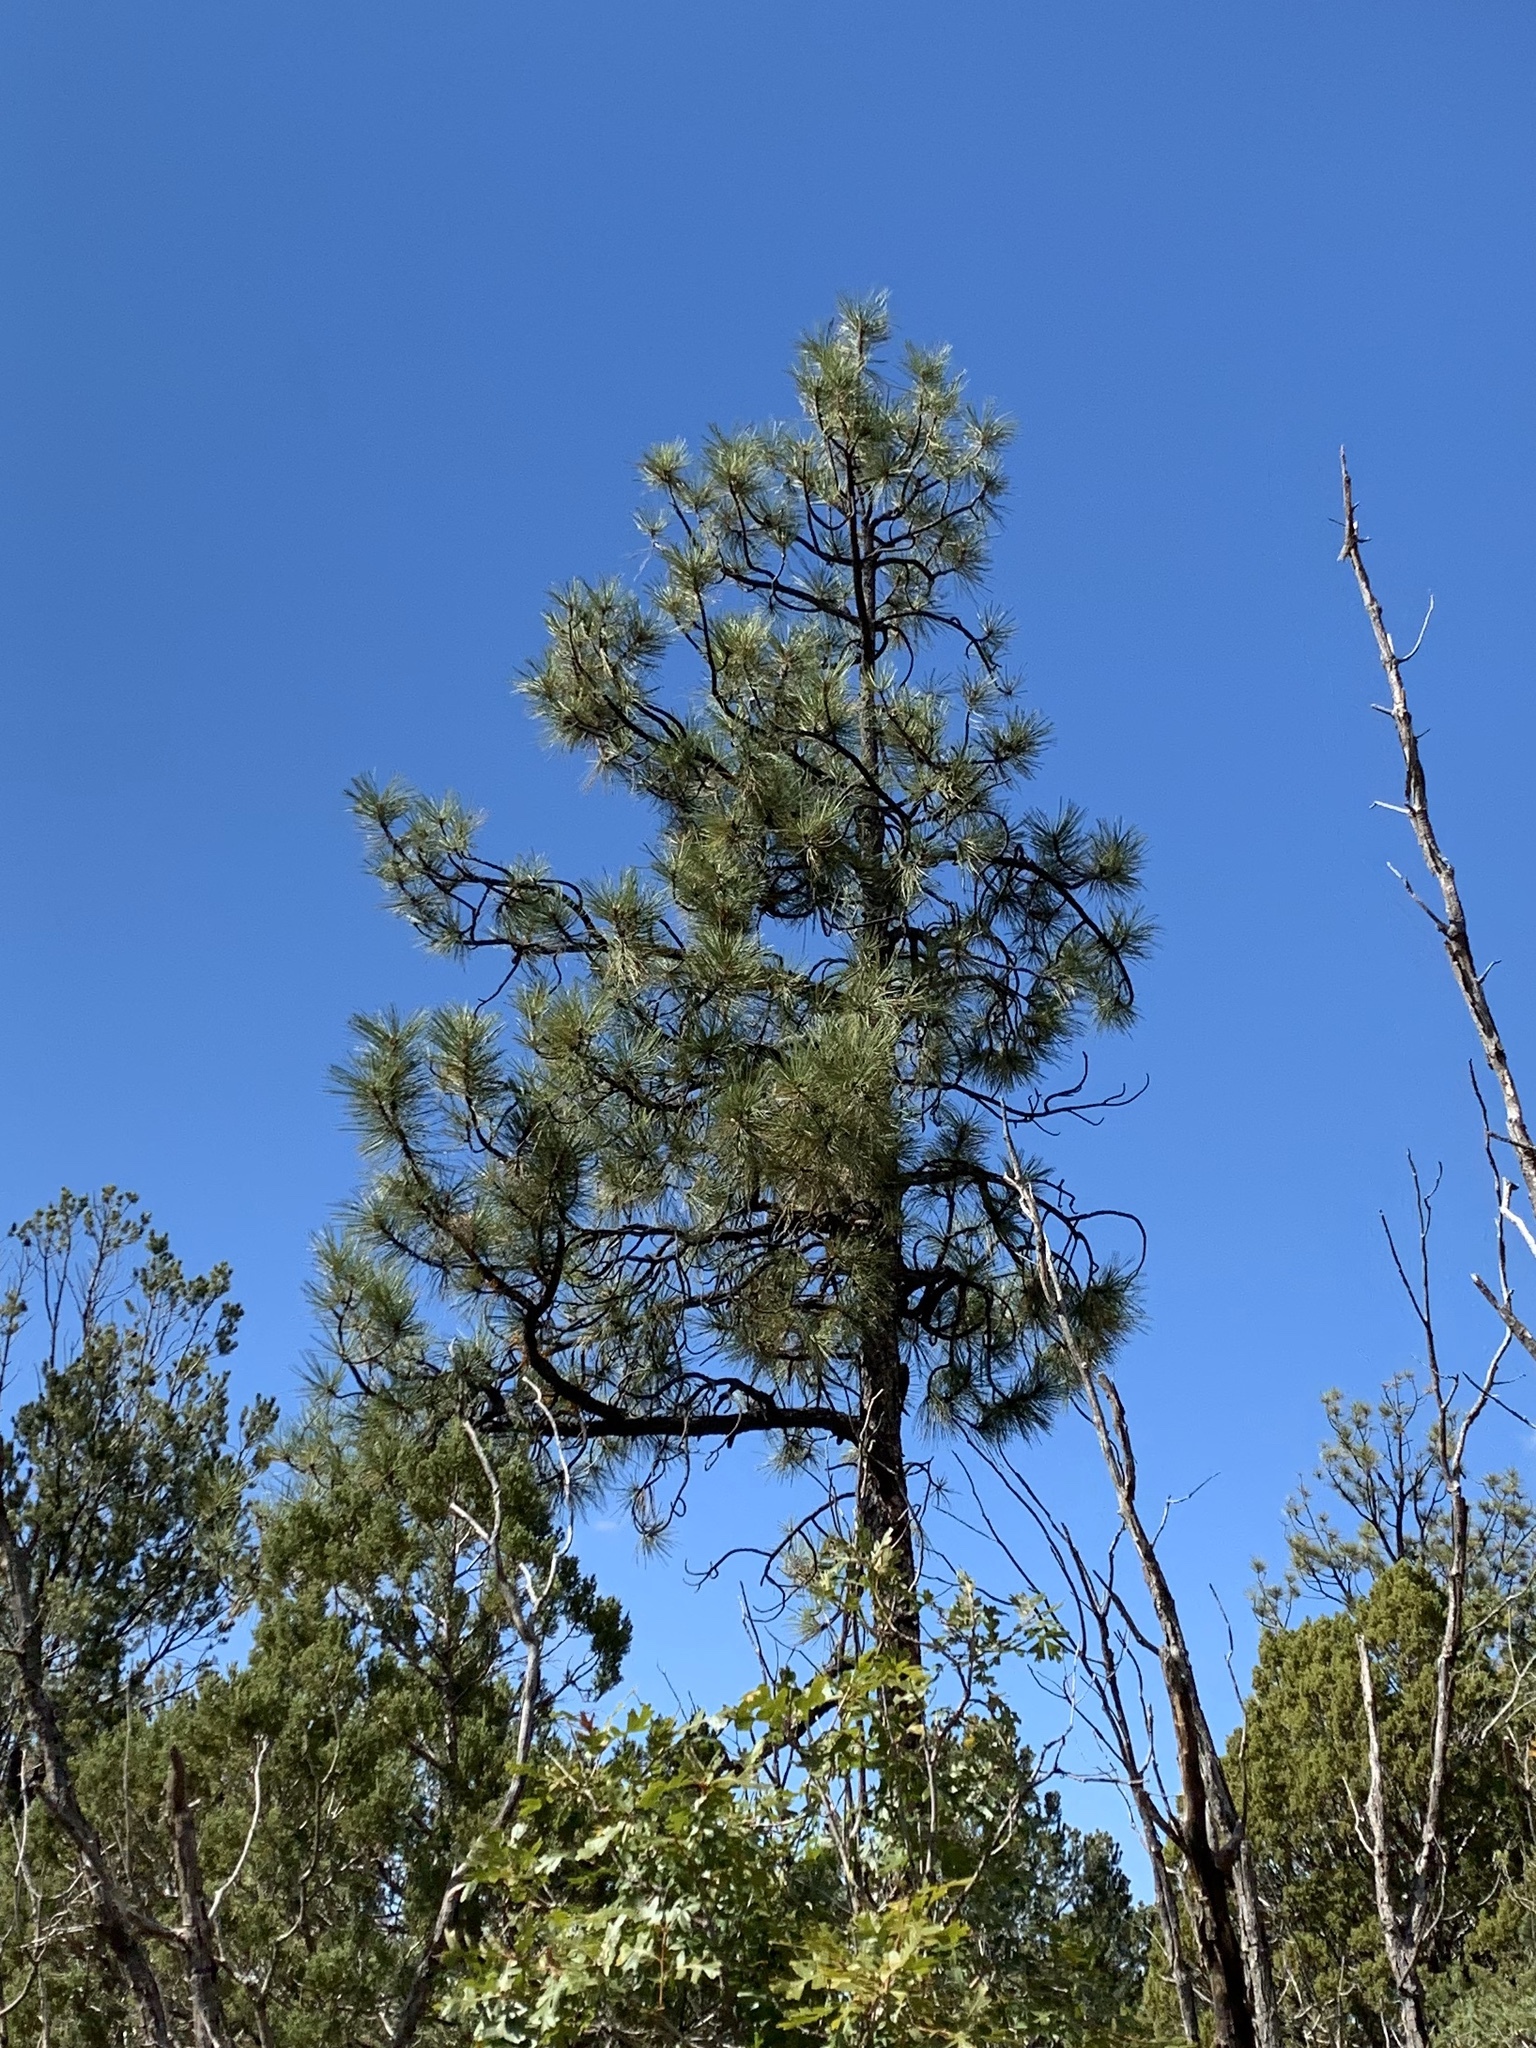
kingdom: Plantae
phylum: Tracheophyta
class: Pinopsida
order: Pinales
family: Pinaceae
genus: Pinus
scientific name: Pinus ponderosa
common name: Western yellow-pine
